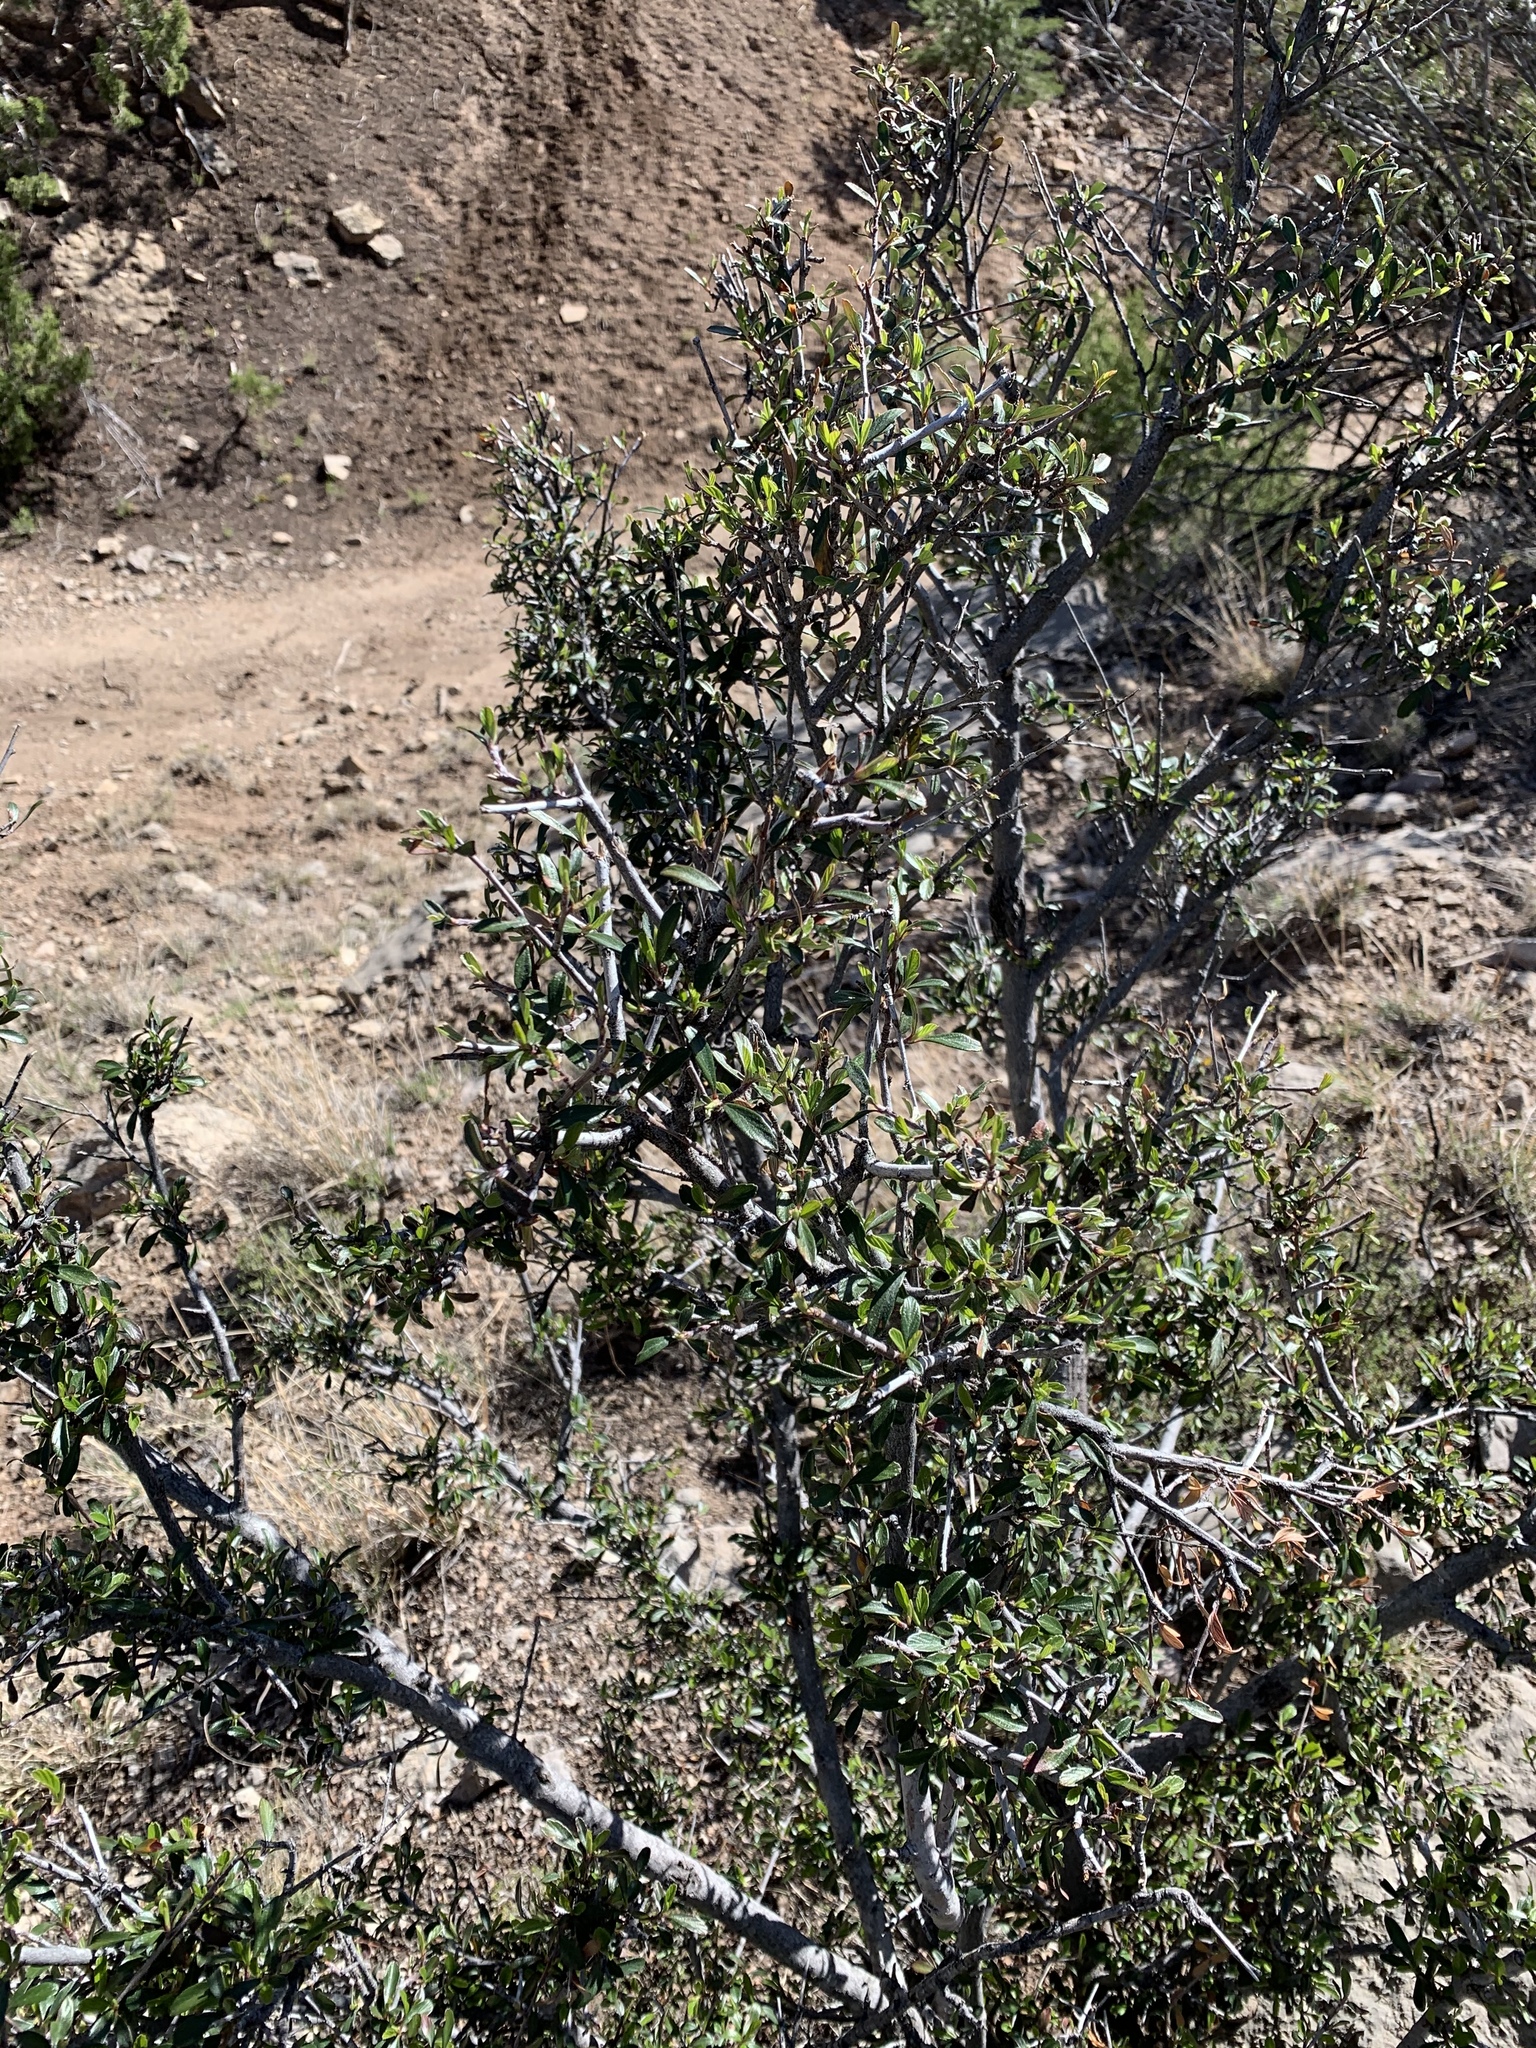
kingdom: Plantae
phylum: Tracheophyta
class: Magnoliopsida
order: Rosales
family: Rosaceae
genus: Cercocarpus
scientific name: Cercocarpus breviflorus
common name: Wright's mountain-mahogany
